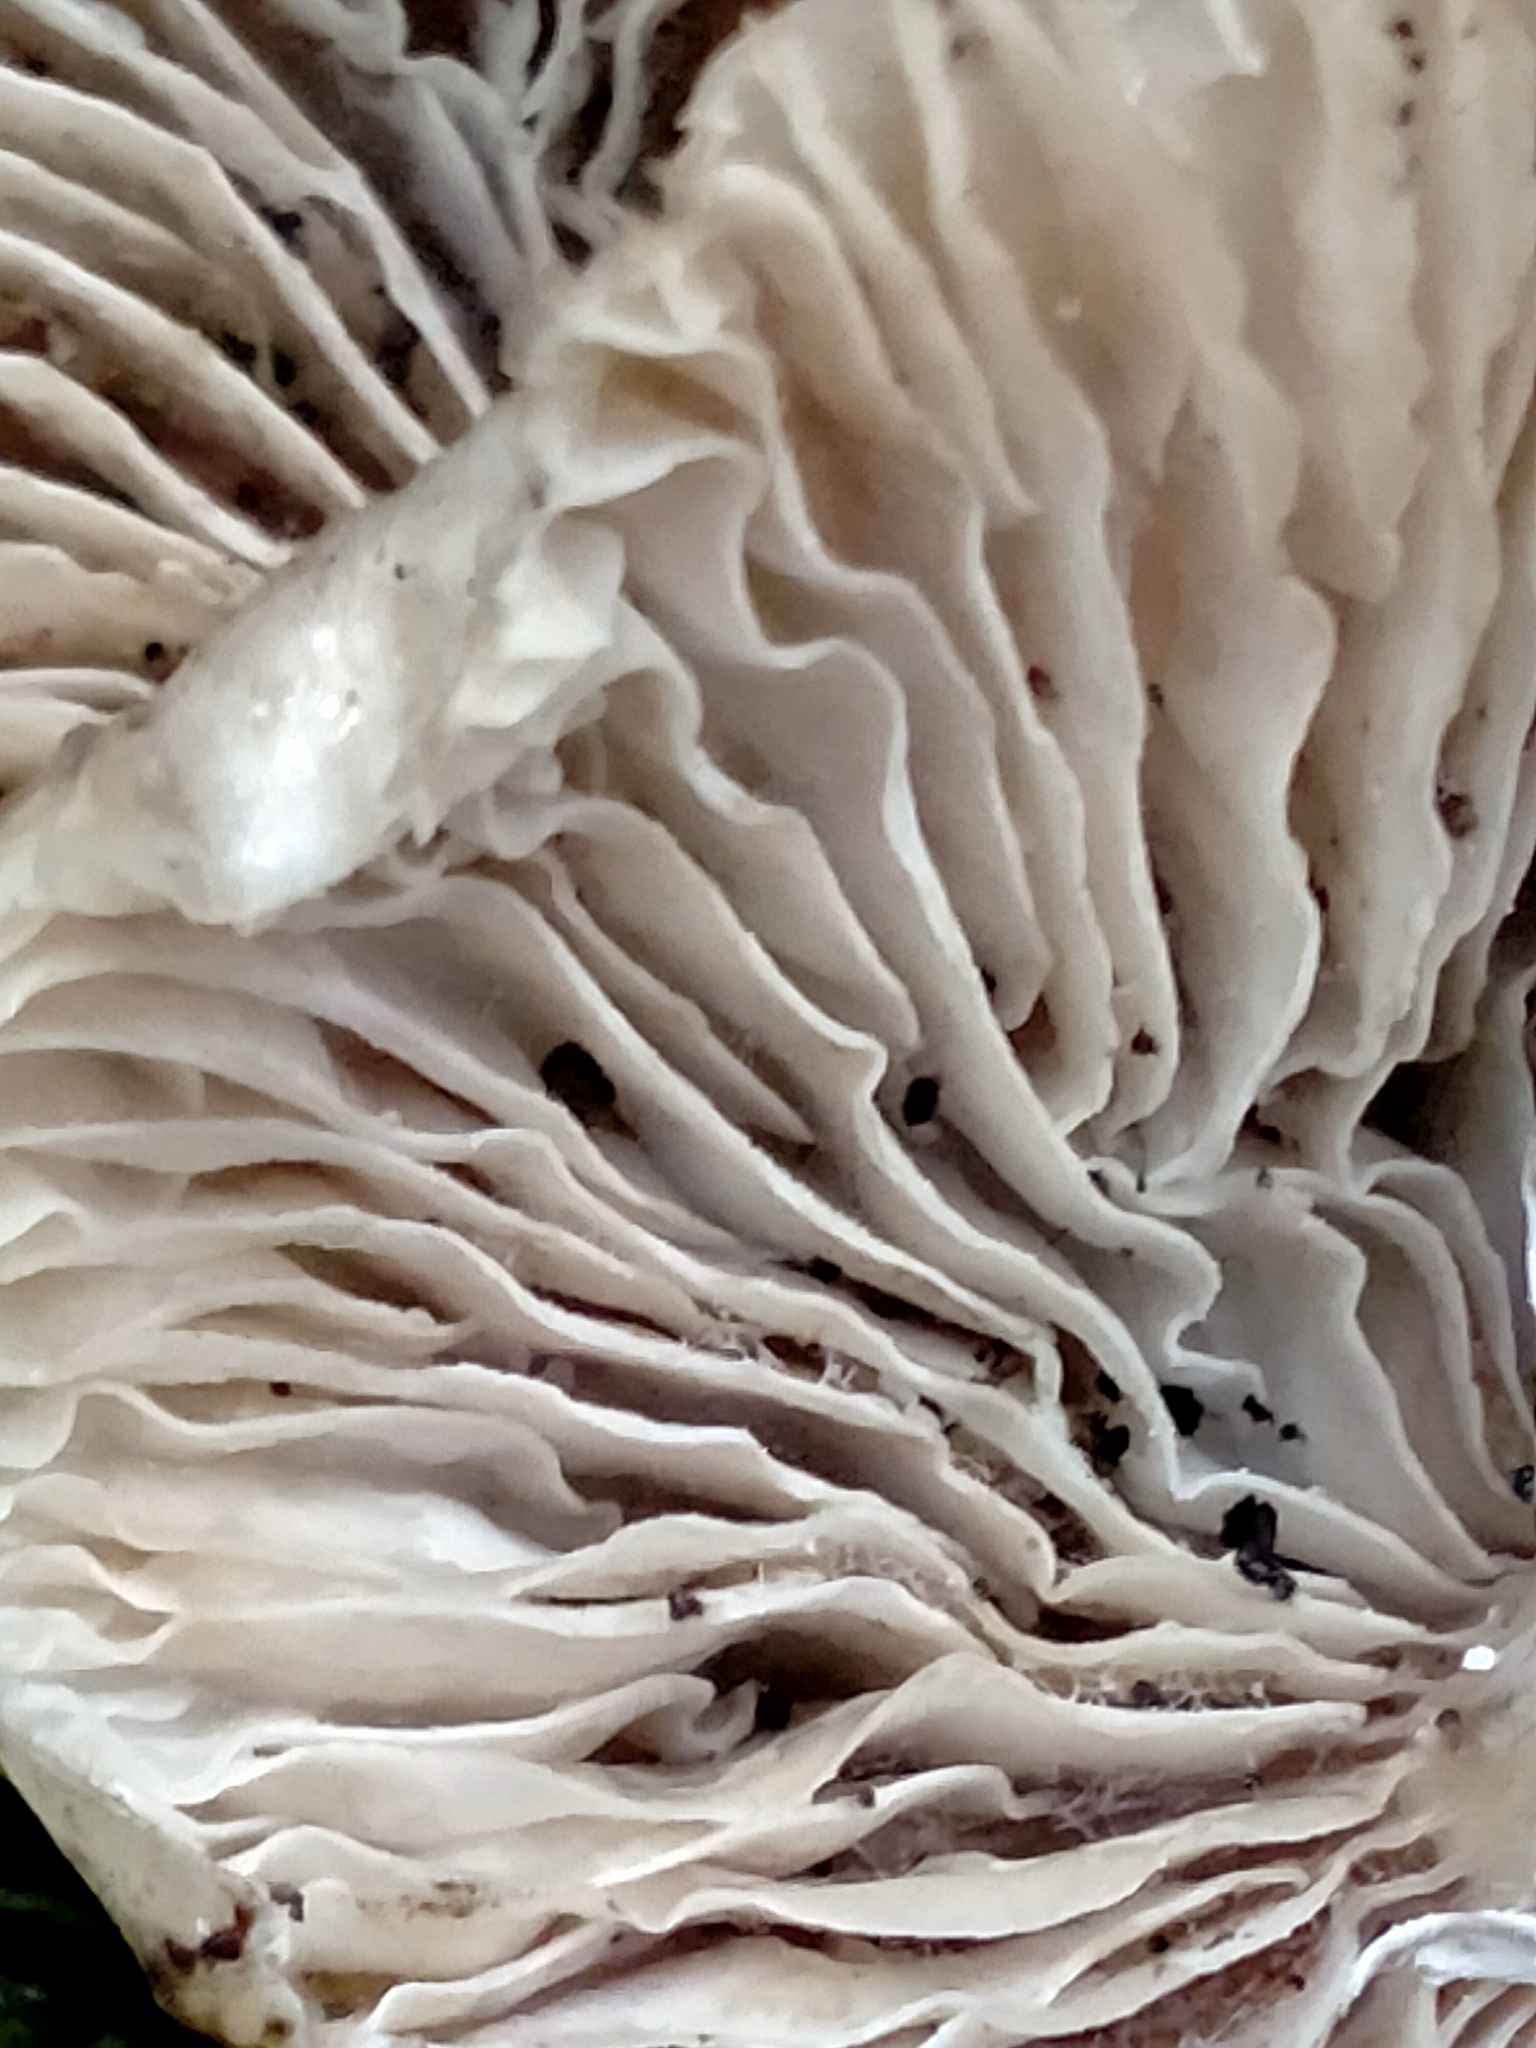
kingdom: Fungi
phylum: Basidiomycota
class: Agaricomycetes
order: Agaricales
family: Physalacriaceae
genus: Armillaria
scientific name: Armillaria novae-zelandiae
